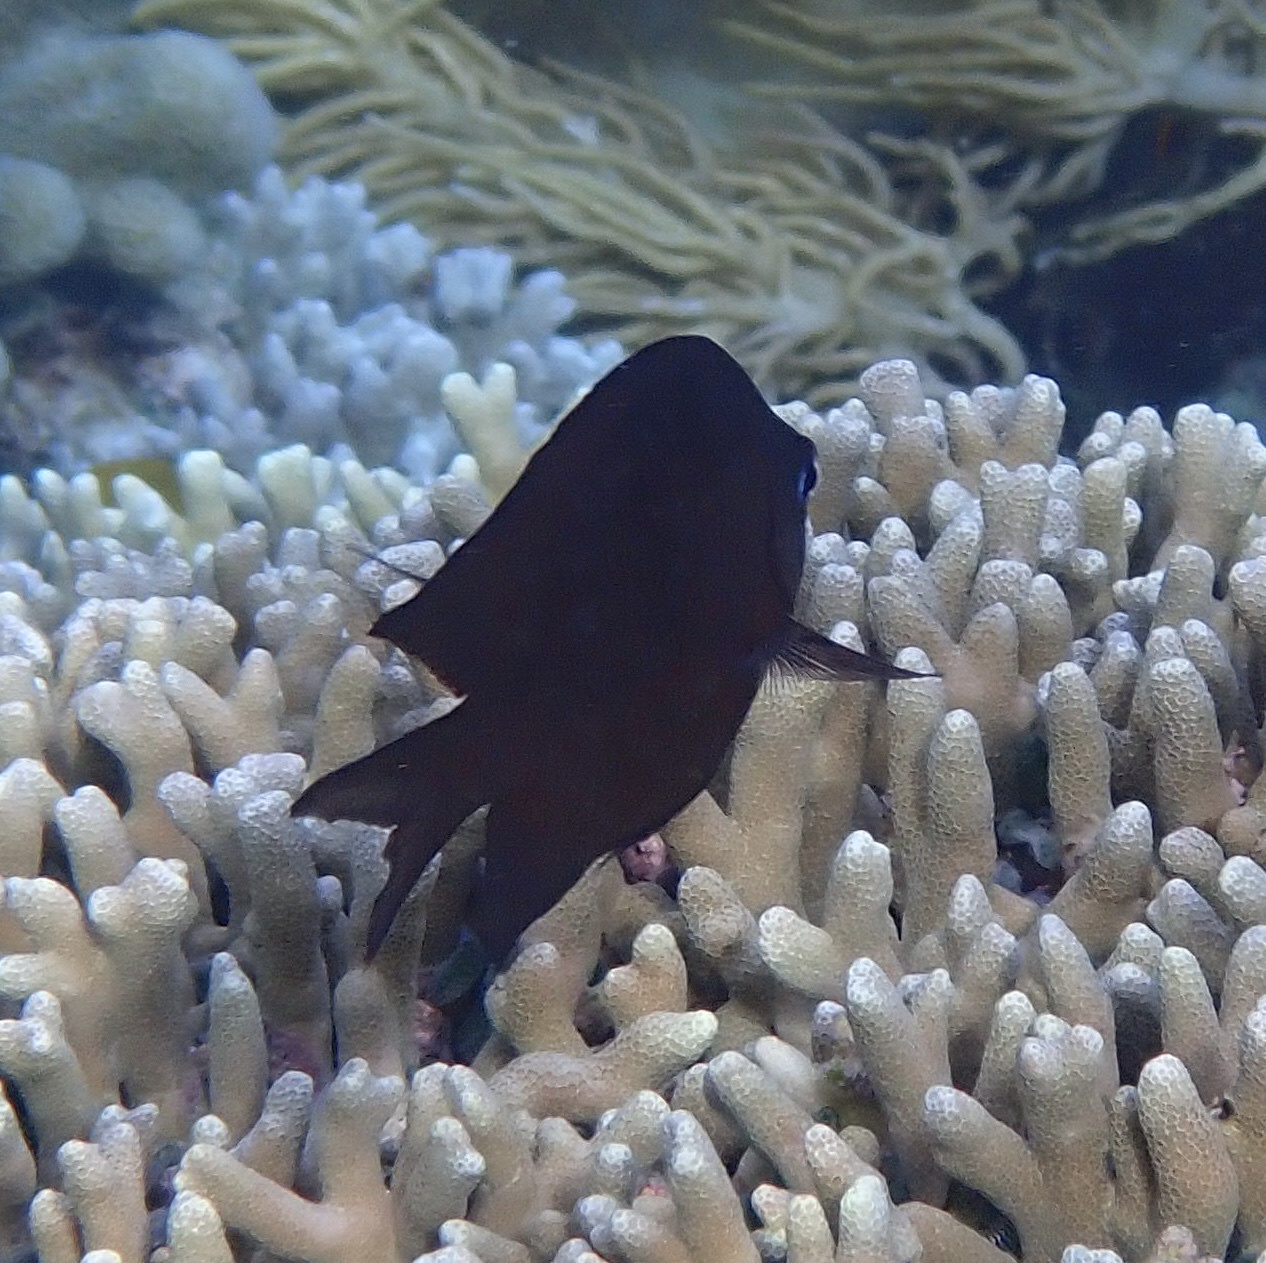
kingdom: Animalia
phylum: Chordata
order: Perciformes
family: Pomacentridae
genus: Acanthochromis
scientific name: Acanthochromis polyacanthus
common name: Spiny chromis
